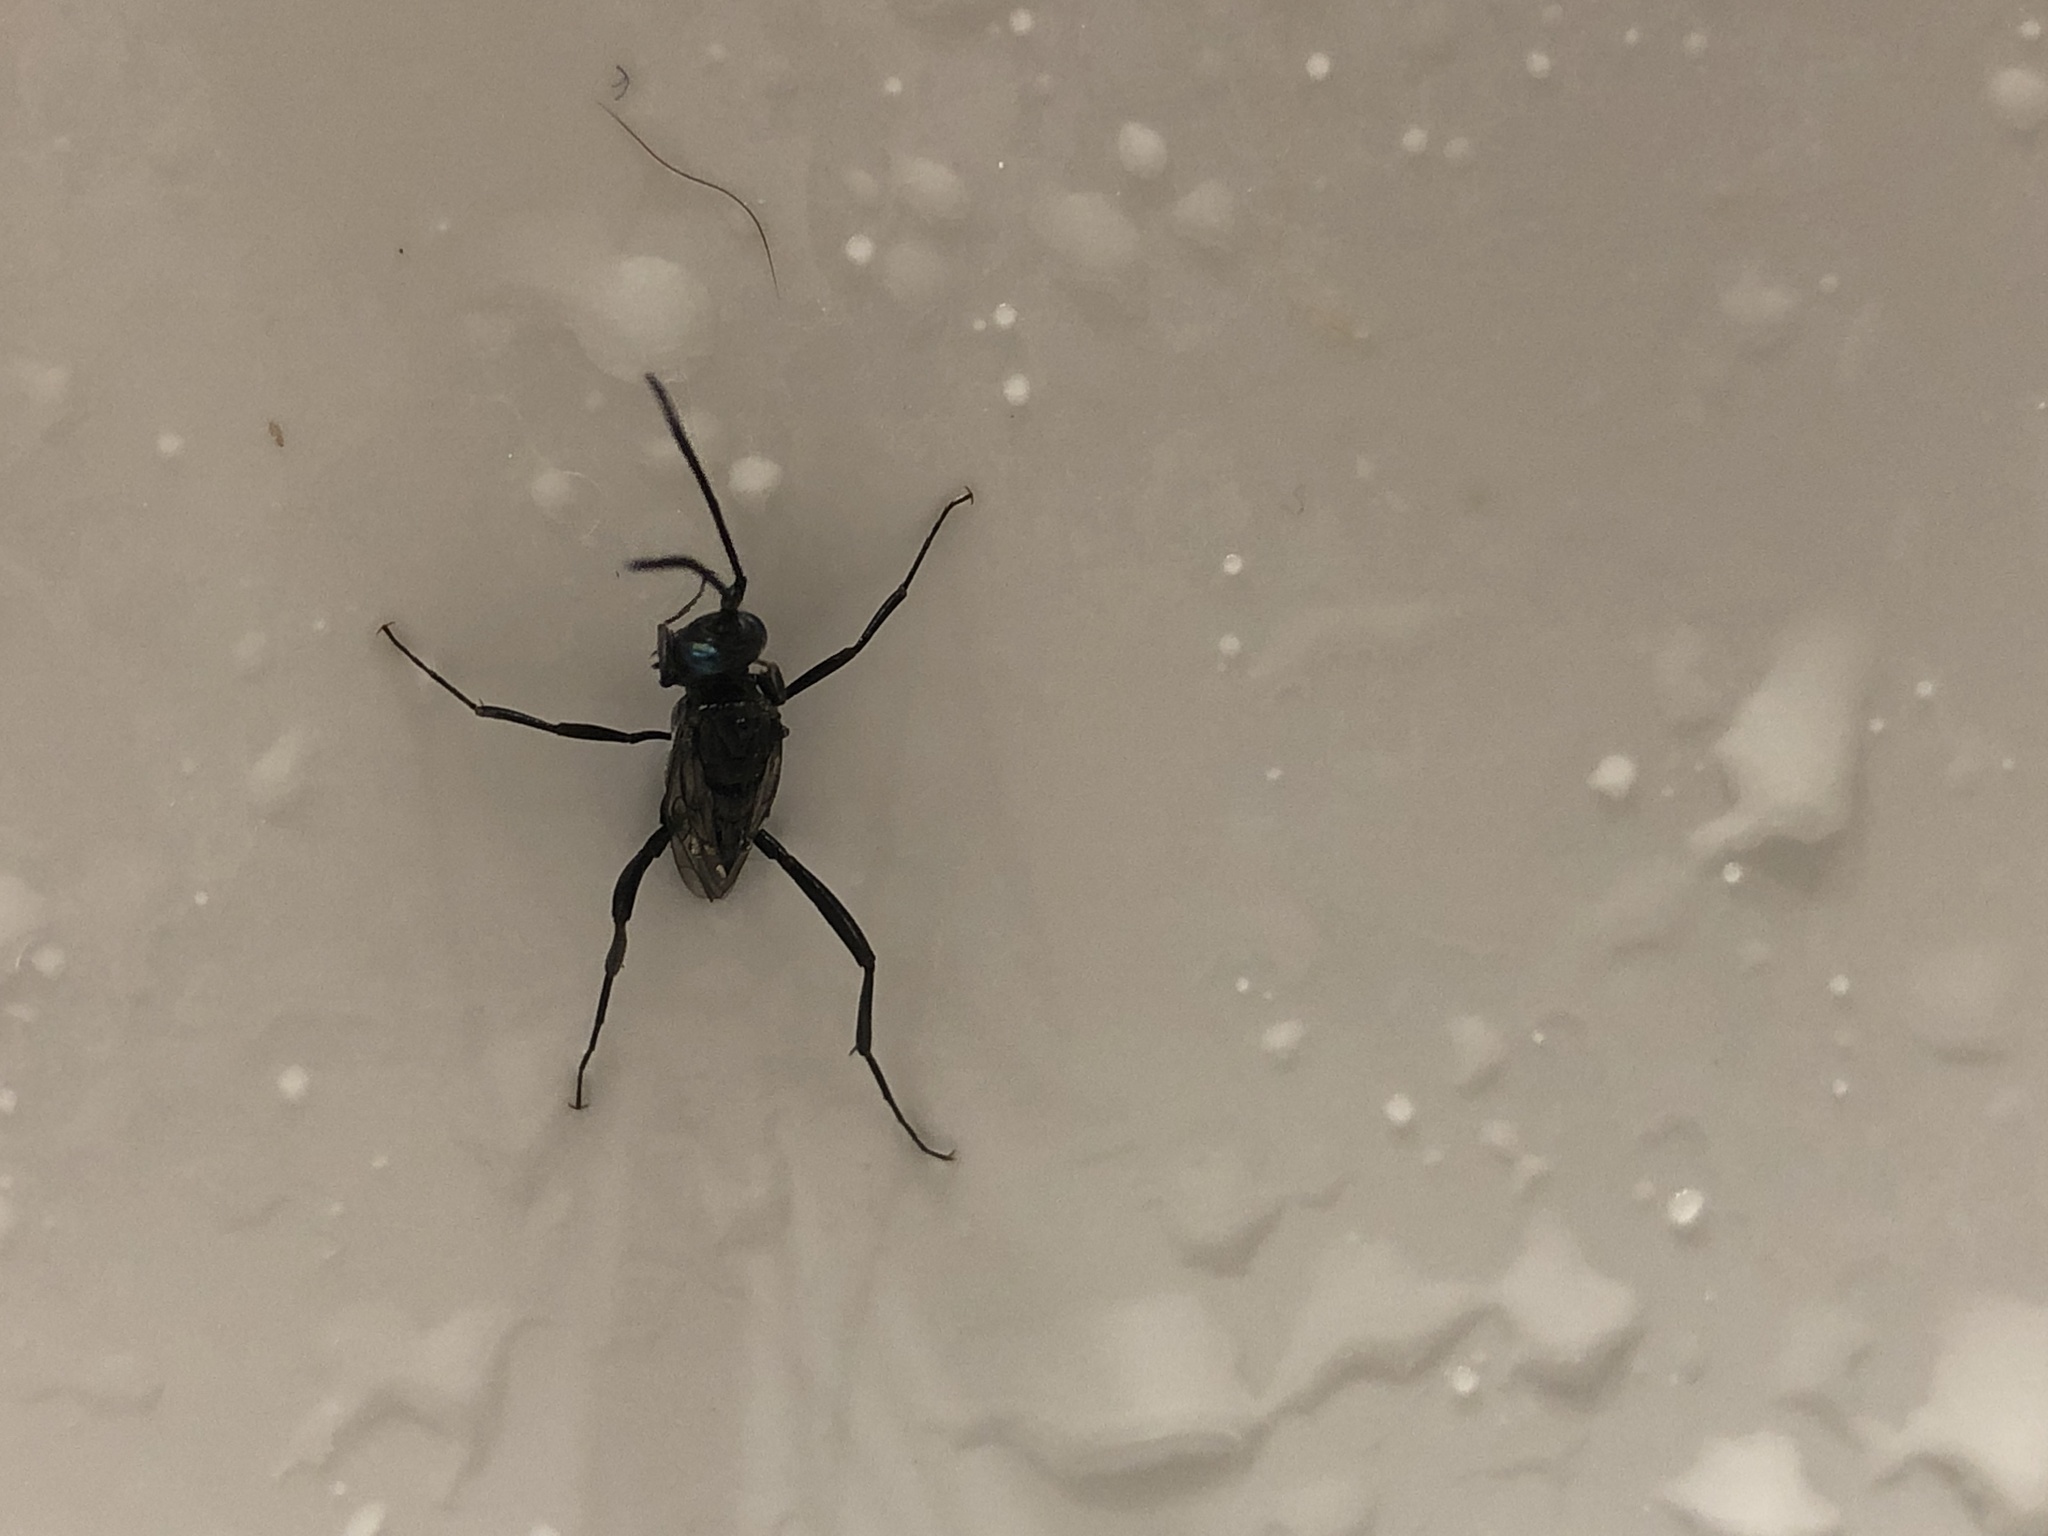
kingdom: Animalia
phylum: Arthropoda
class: Insecta
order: Hymenoptera
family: Evaniidae
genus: Evania
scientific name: Evania appendigaster
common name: Ensign wasp
